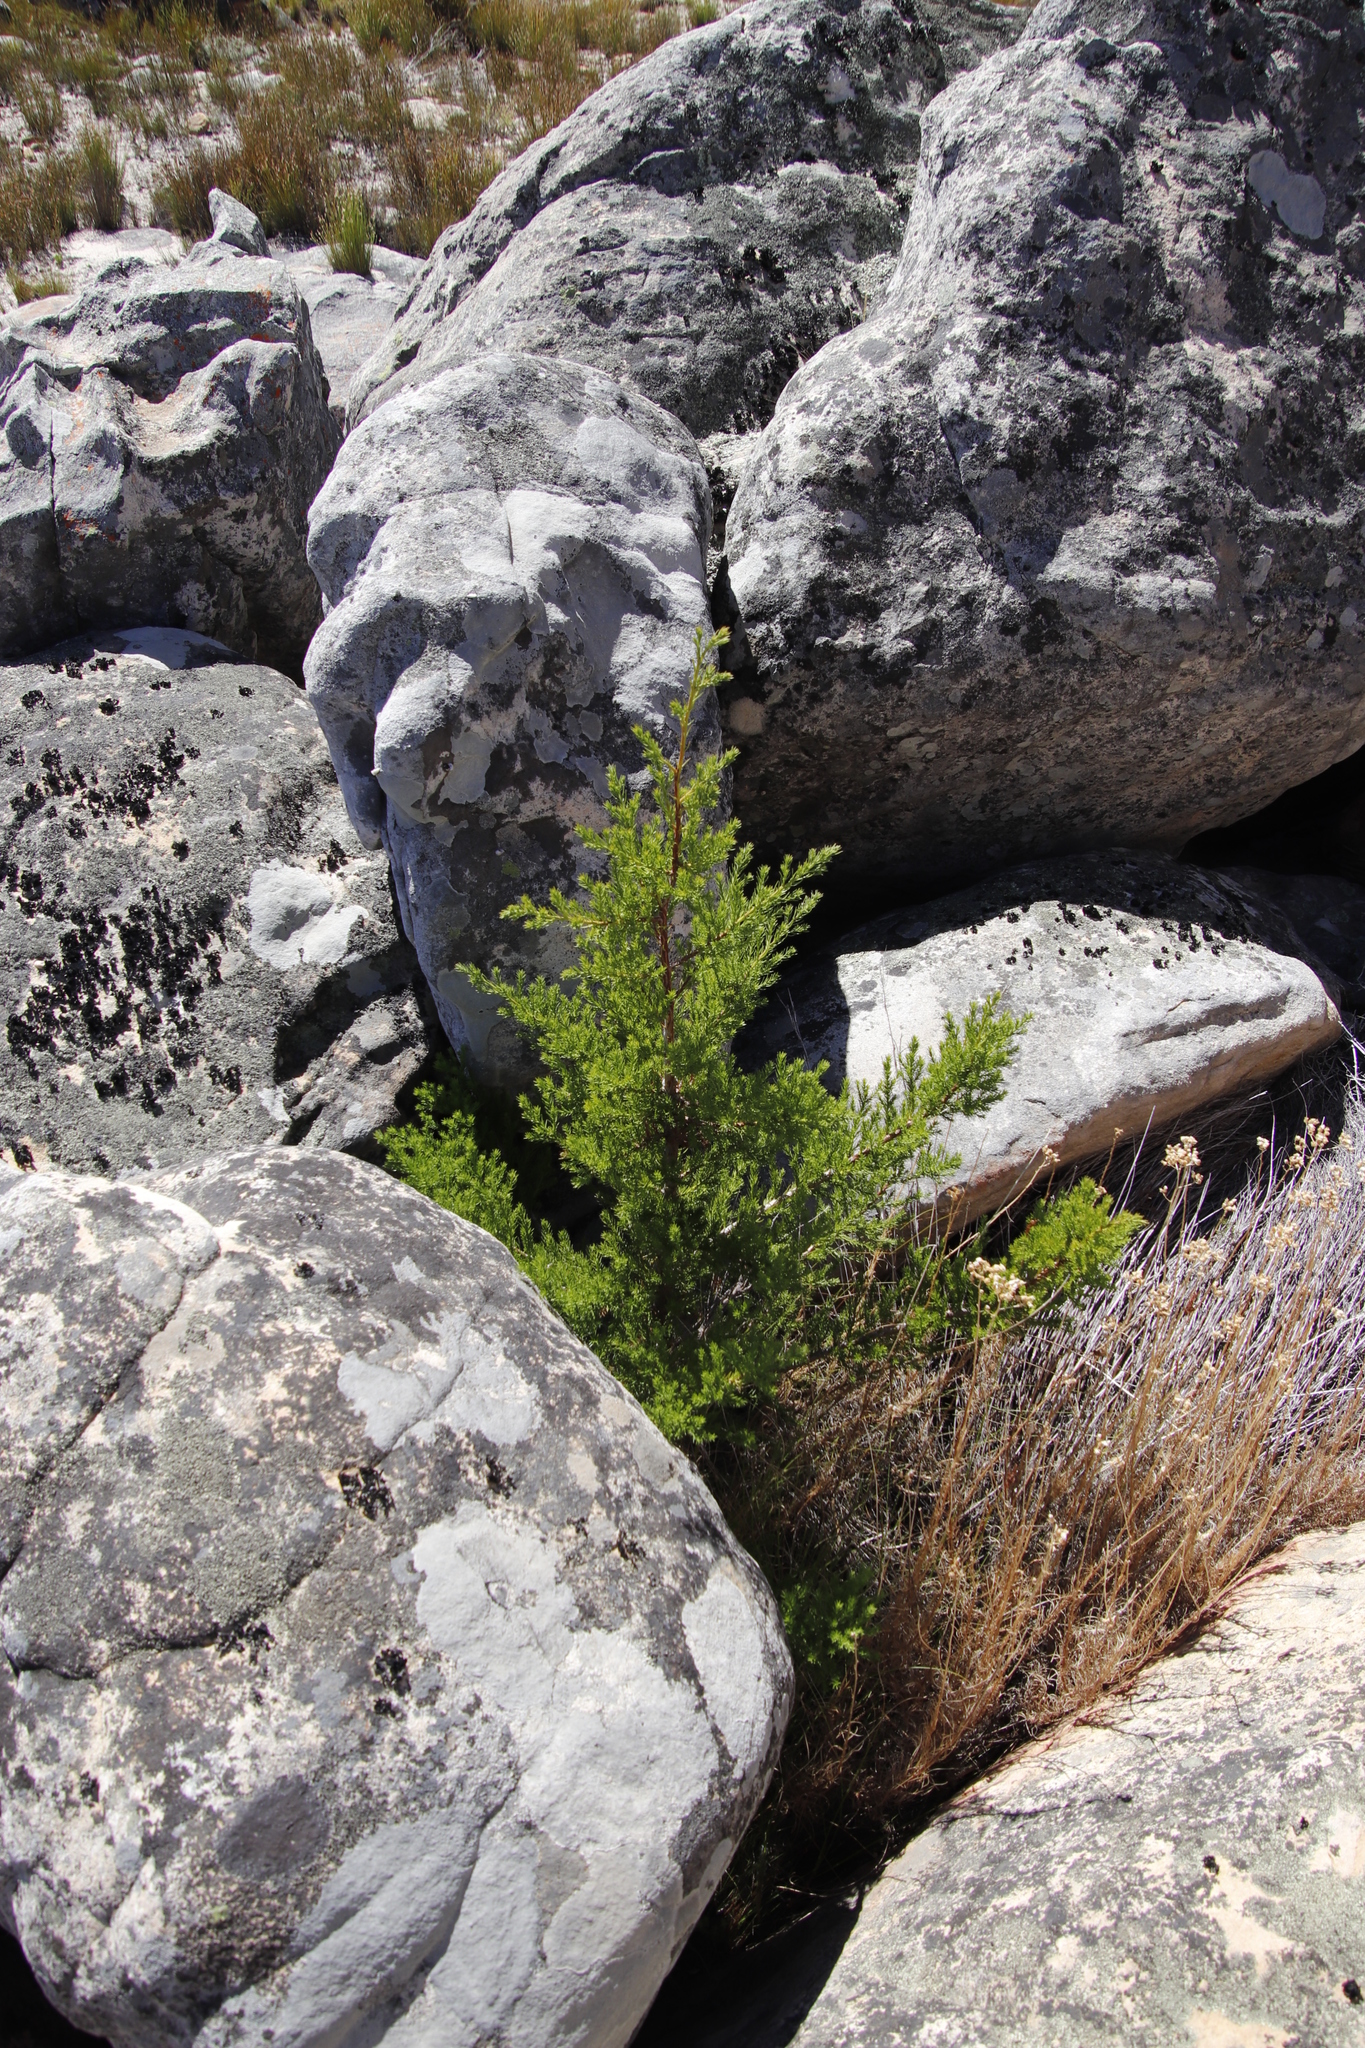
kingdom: Plantae
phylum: Tracheophyta
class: Pinopsida
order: Pinales
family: Cupressaceae
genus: Widdringtonia
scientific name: Widdringtonia nodiflora
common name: Cape cypress
